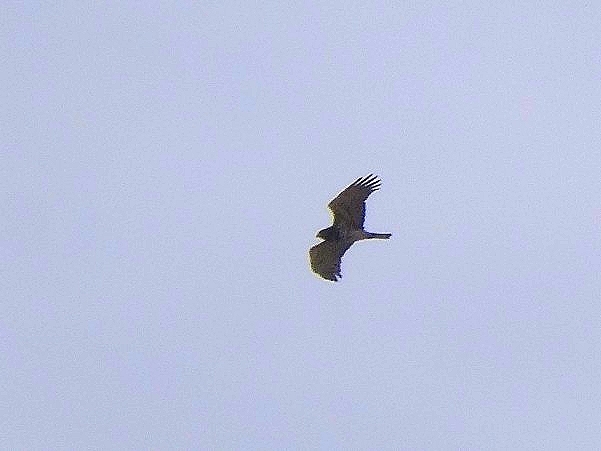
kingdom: Animalia
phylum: Chordata
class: Aves
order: Accipitriformes
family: Accipitridae
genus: Circaetus
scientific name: Circaetus gallicus
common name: Short-toed snake eagle
